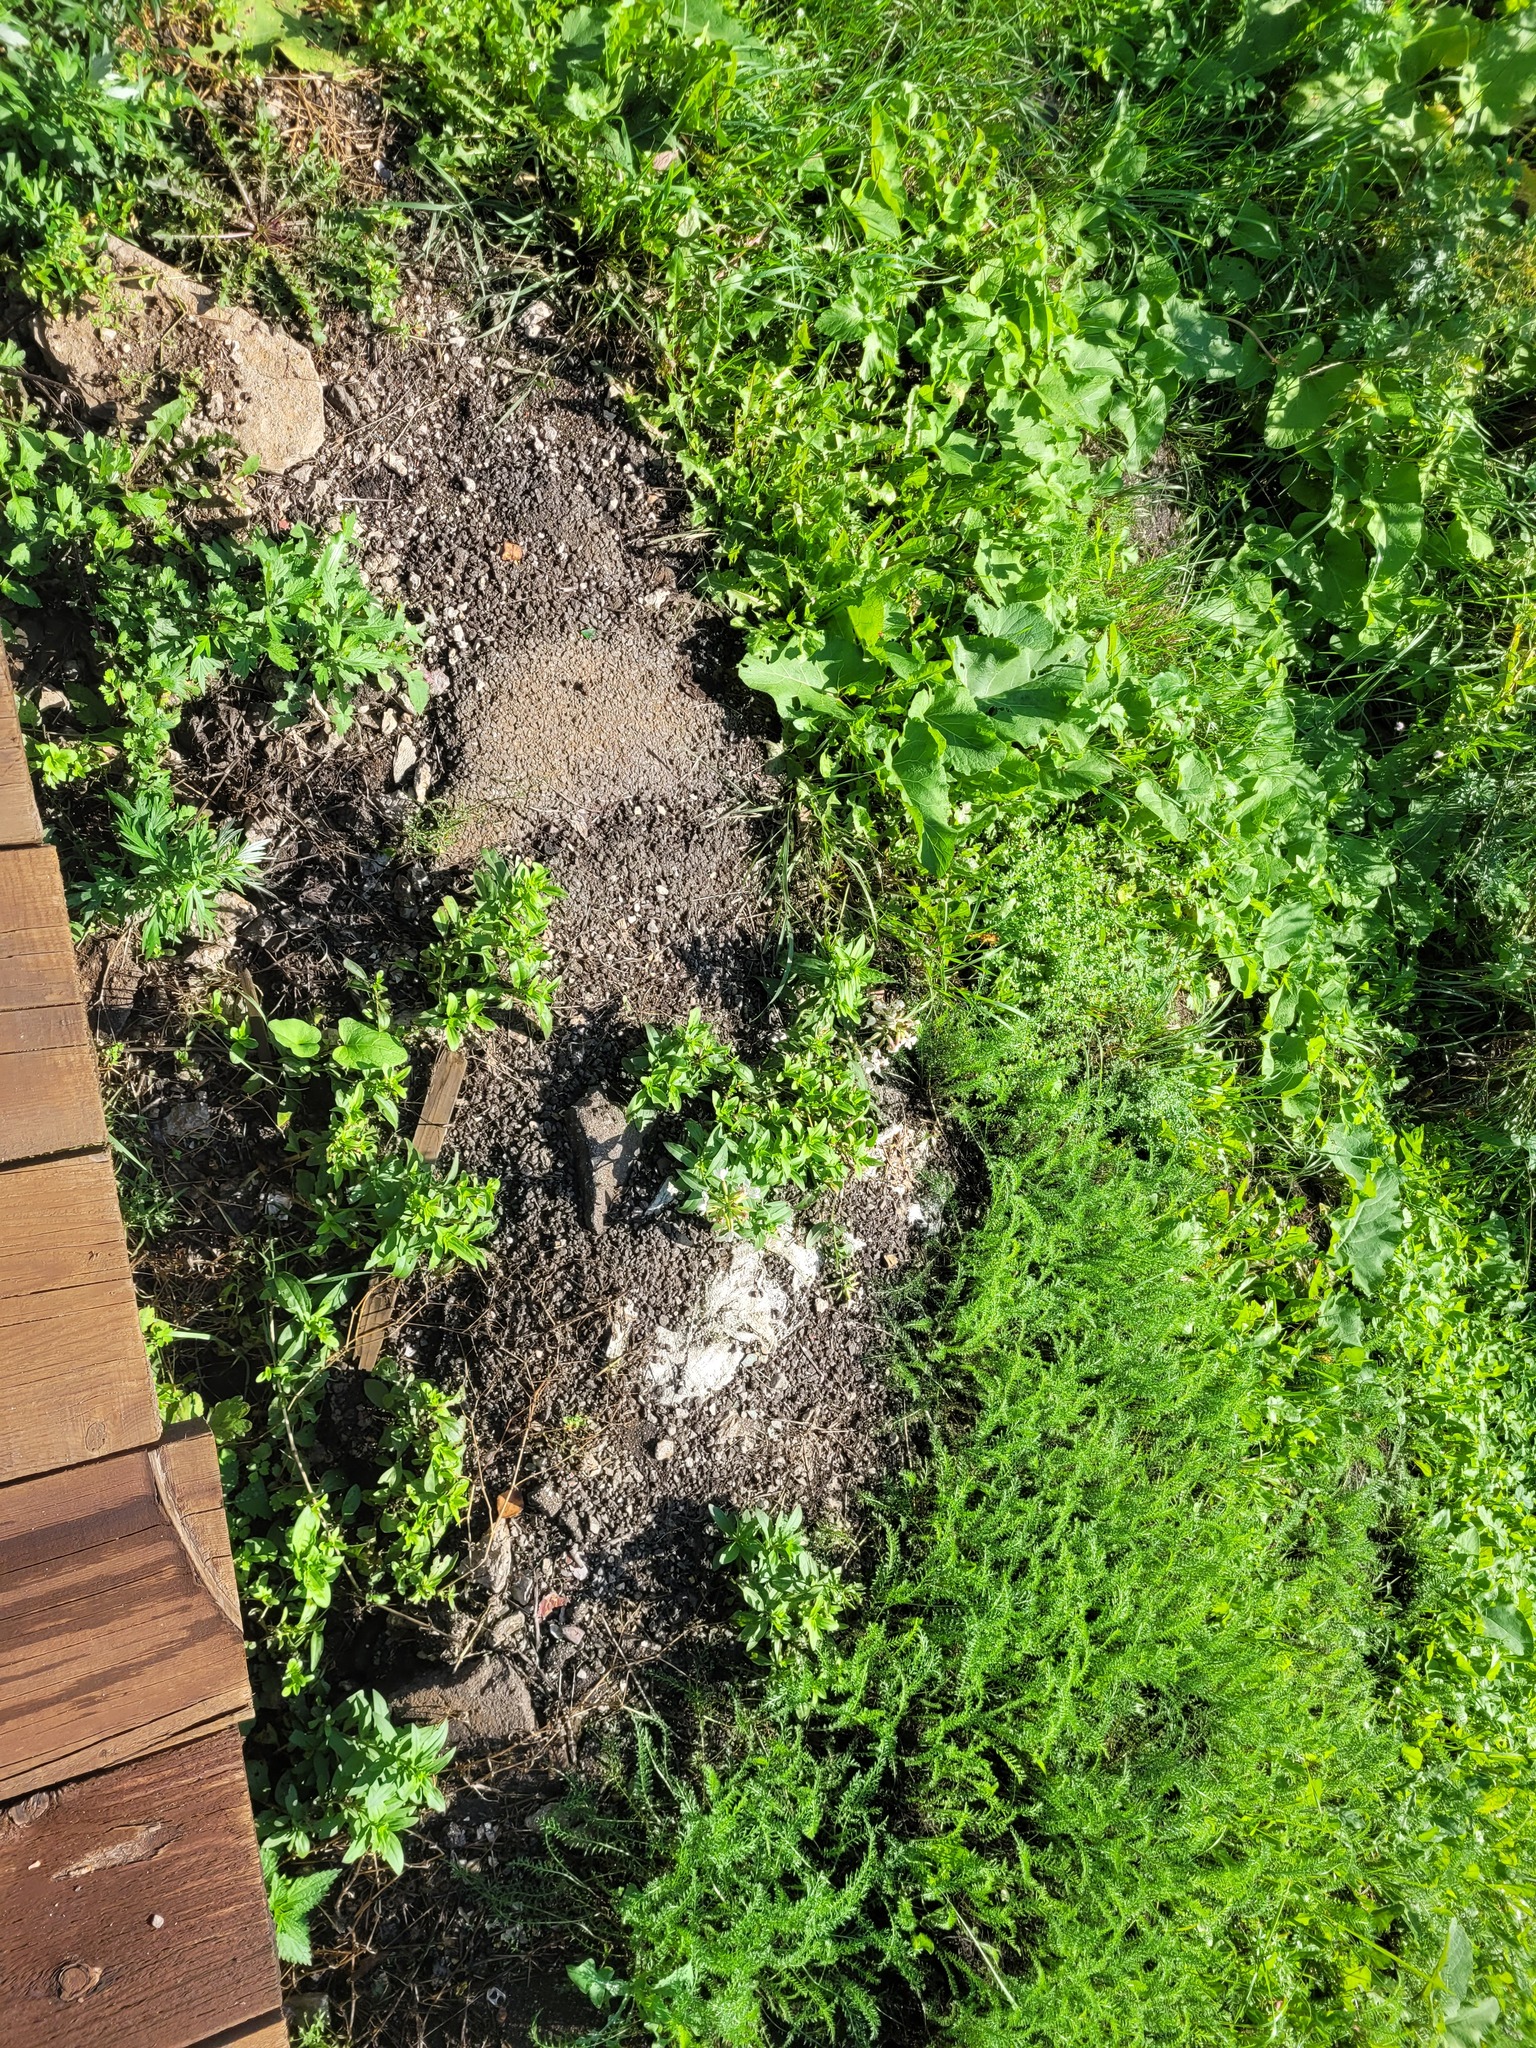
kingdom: Plantae
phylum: Tracheophyta
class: Magnoliopsida
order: Caryophyllales
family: Caryophyllaceae
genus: Saponaria
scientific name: Saponaria officinalis
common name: Soapwort
